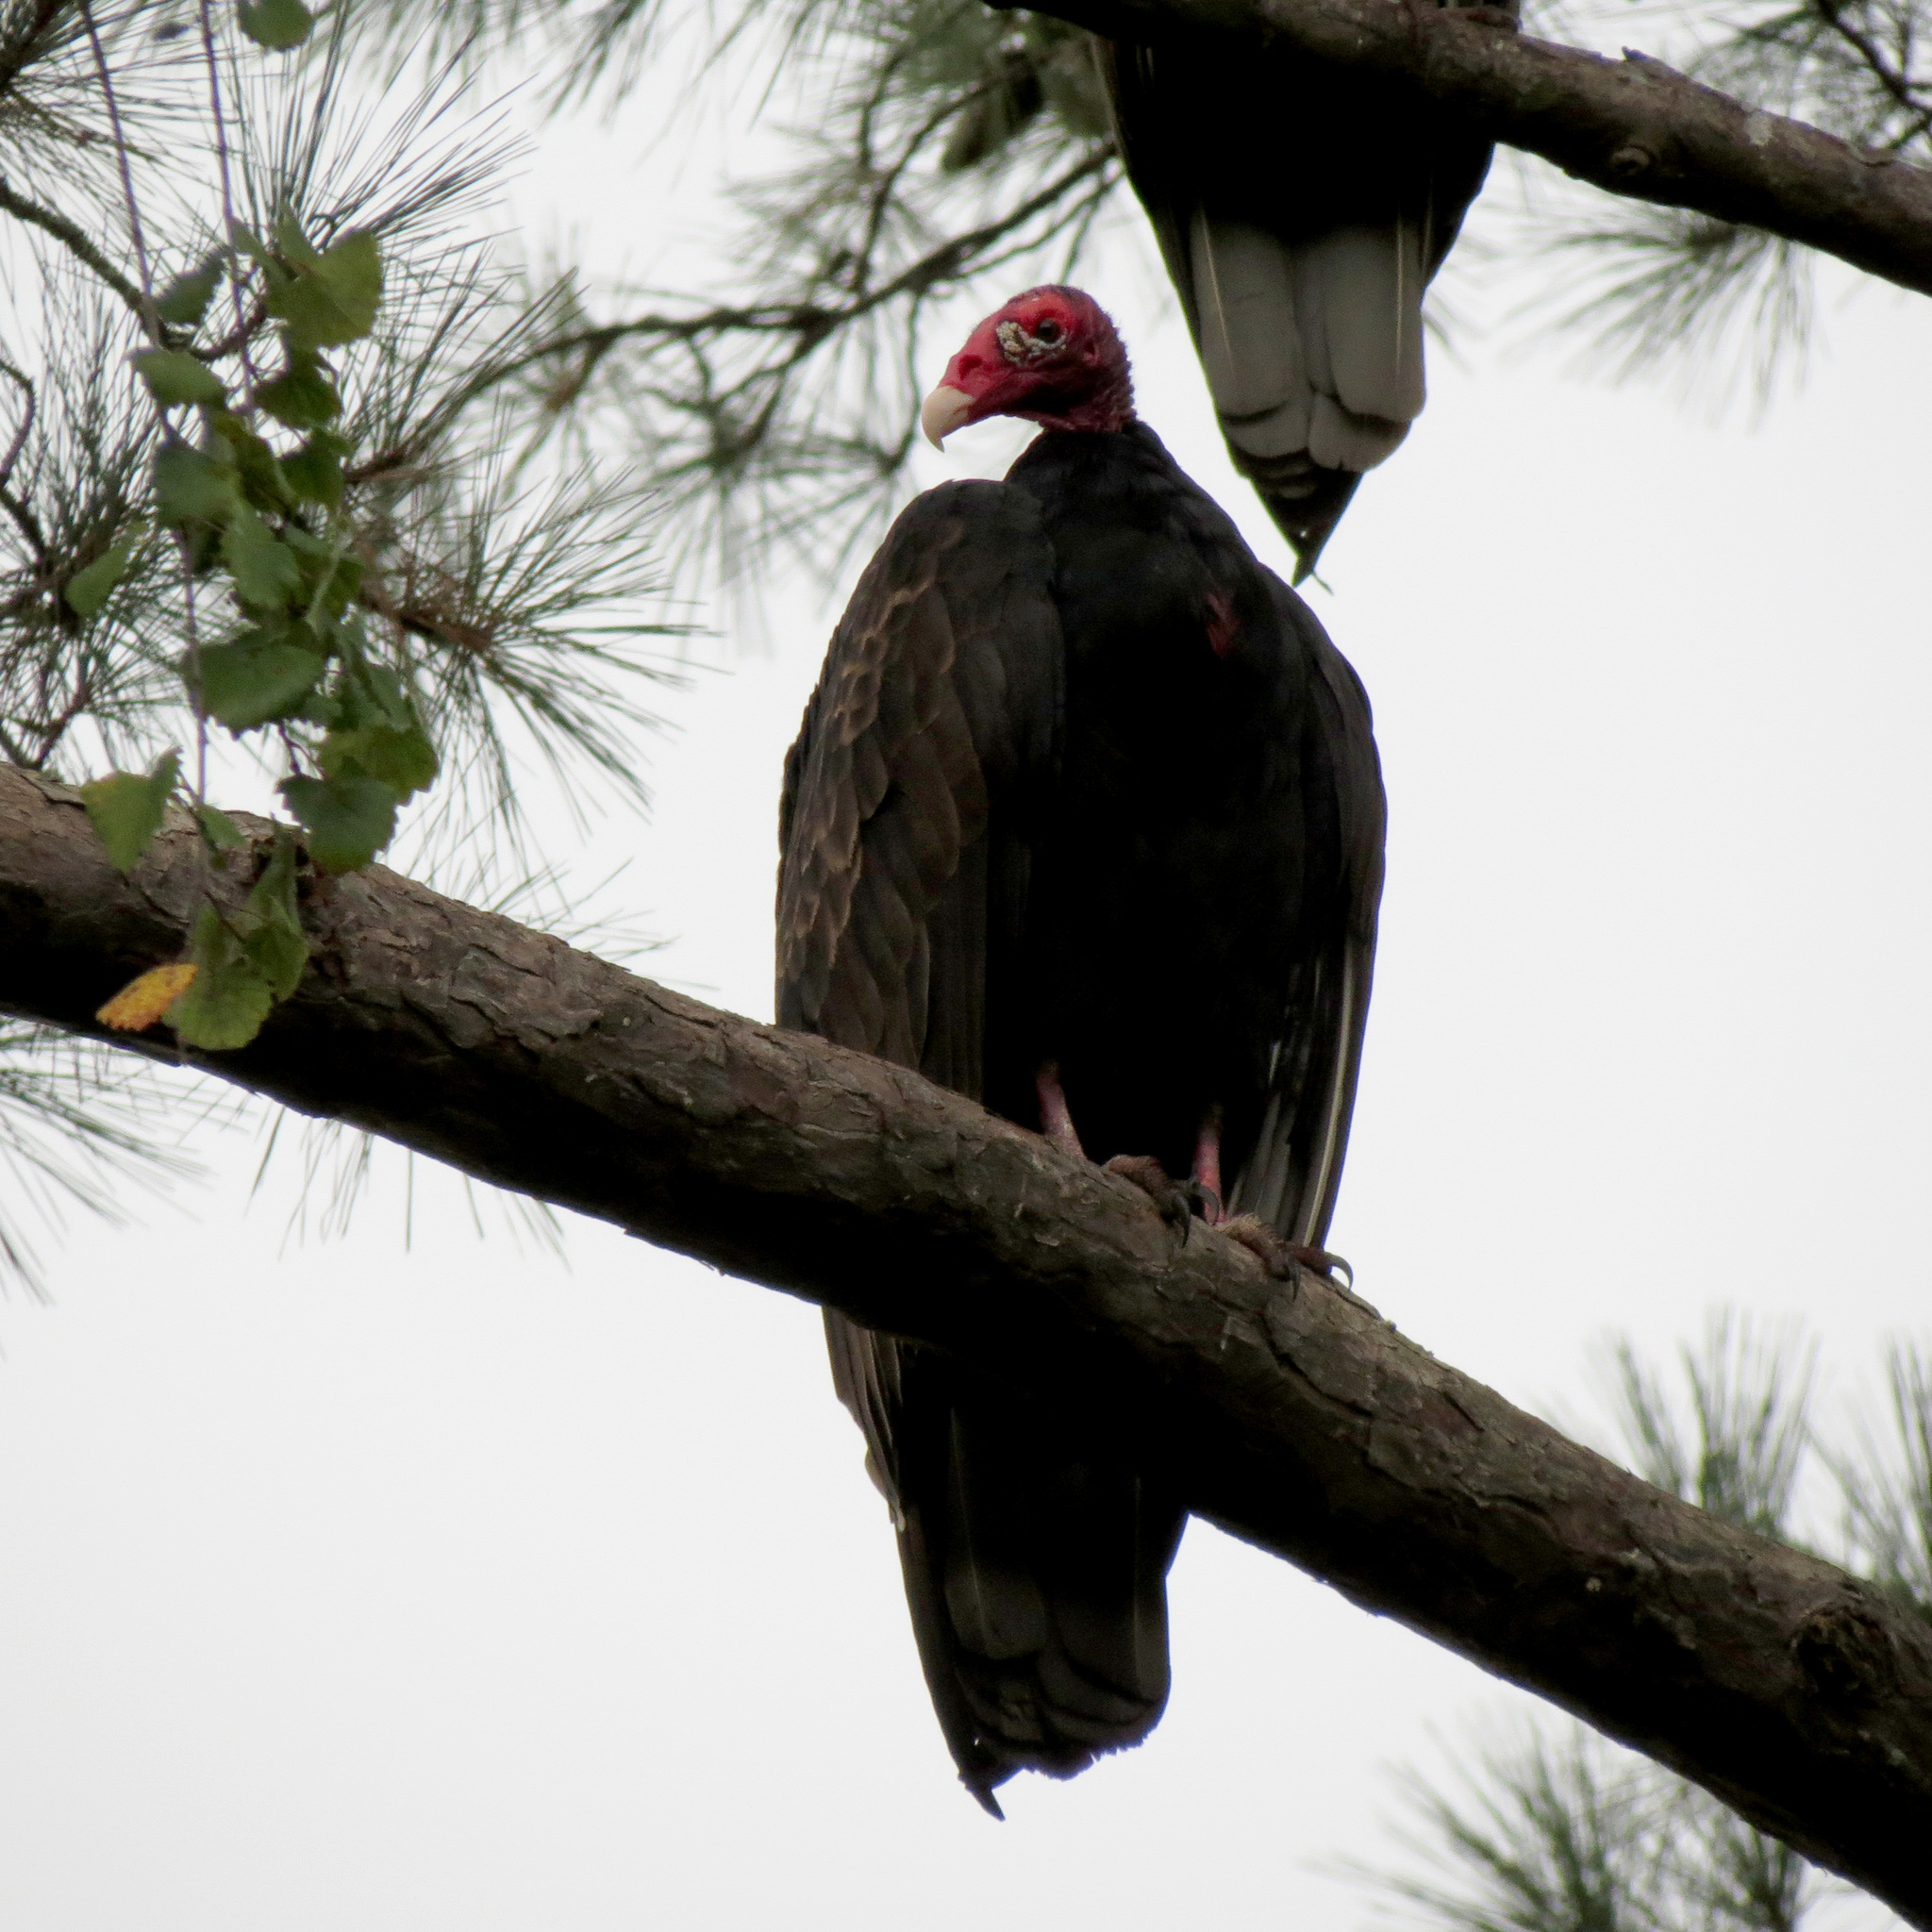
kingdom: Animalia
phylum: Chordata
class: Aves
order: Accipitriformes
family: Cathartidae
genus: Cathartes
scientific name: Cathartes aura
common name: Turkey vulture
